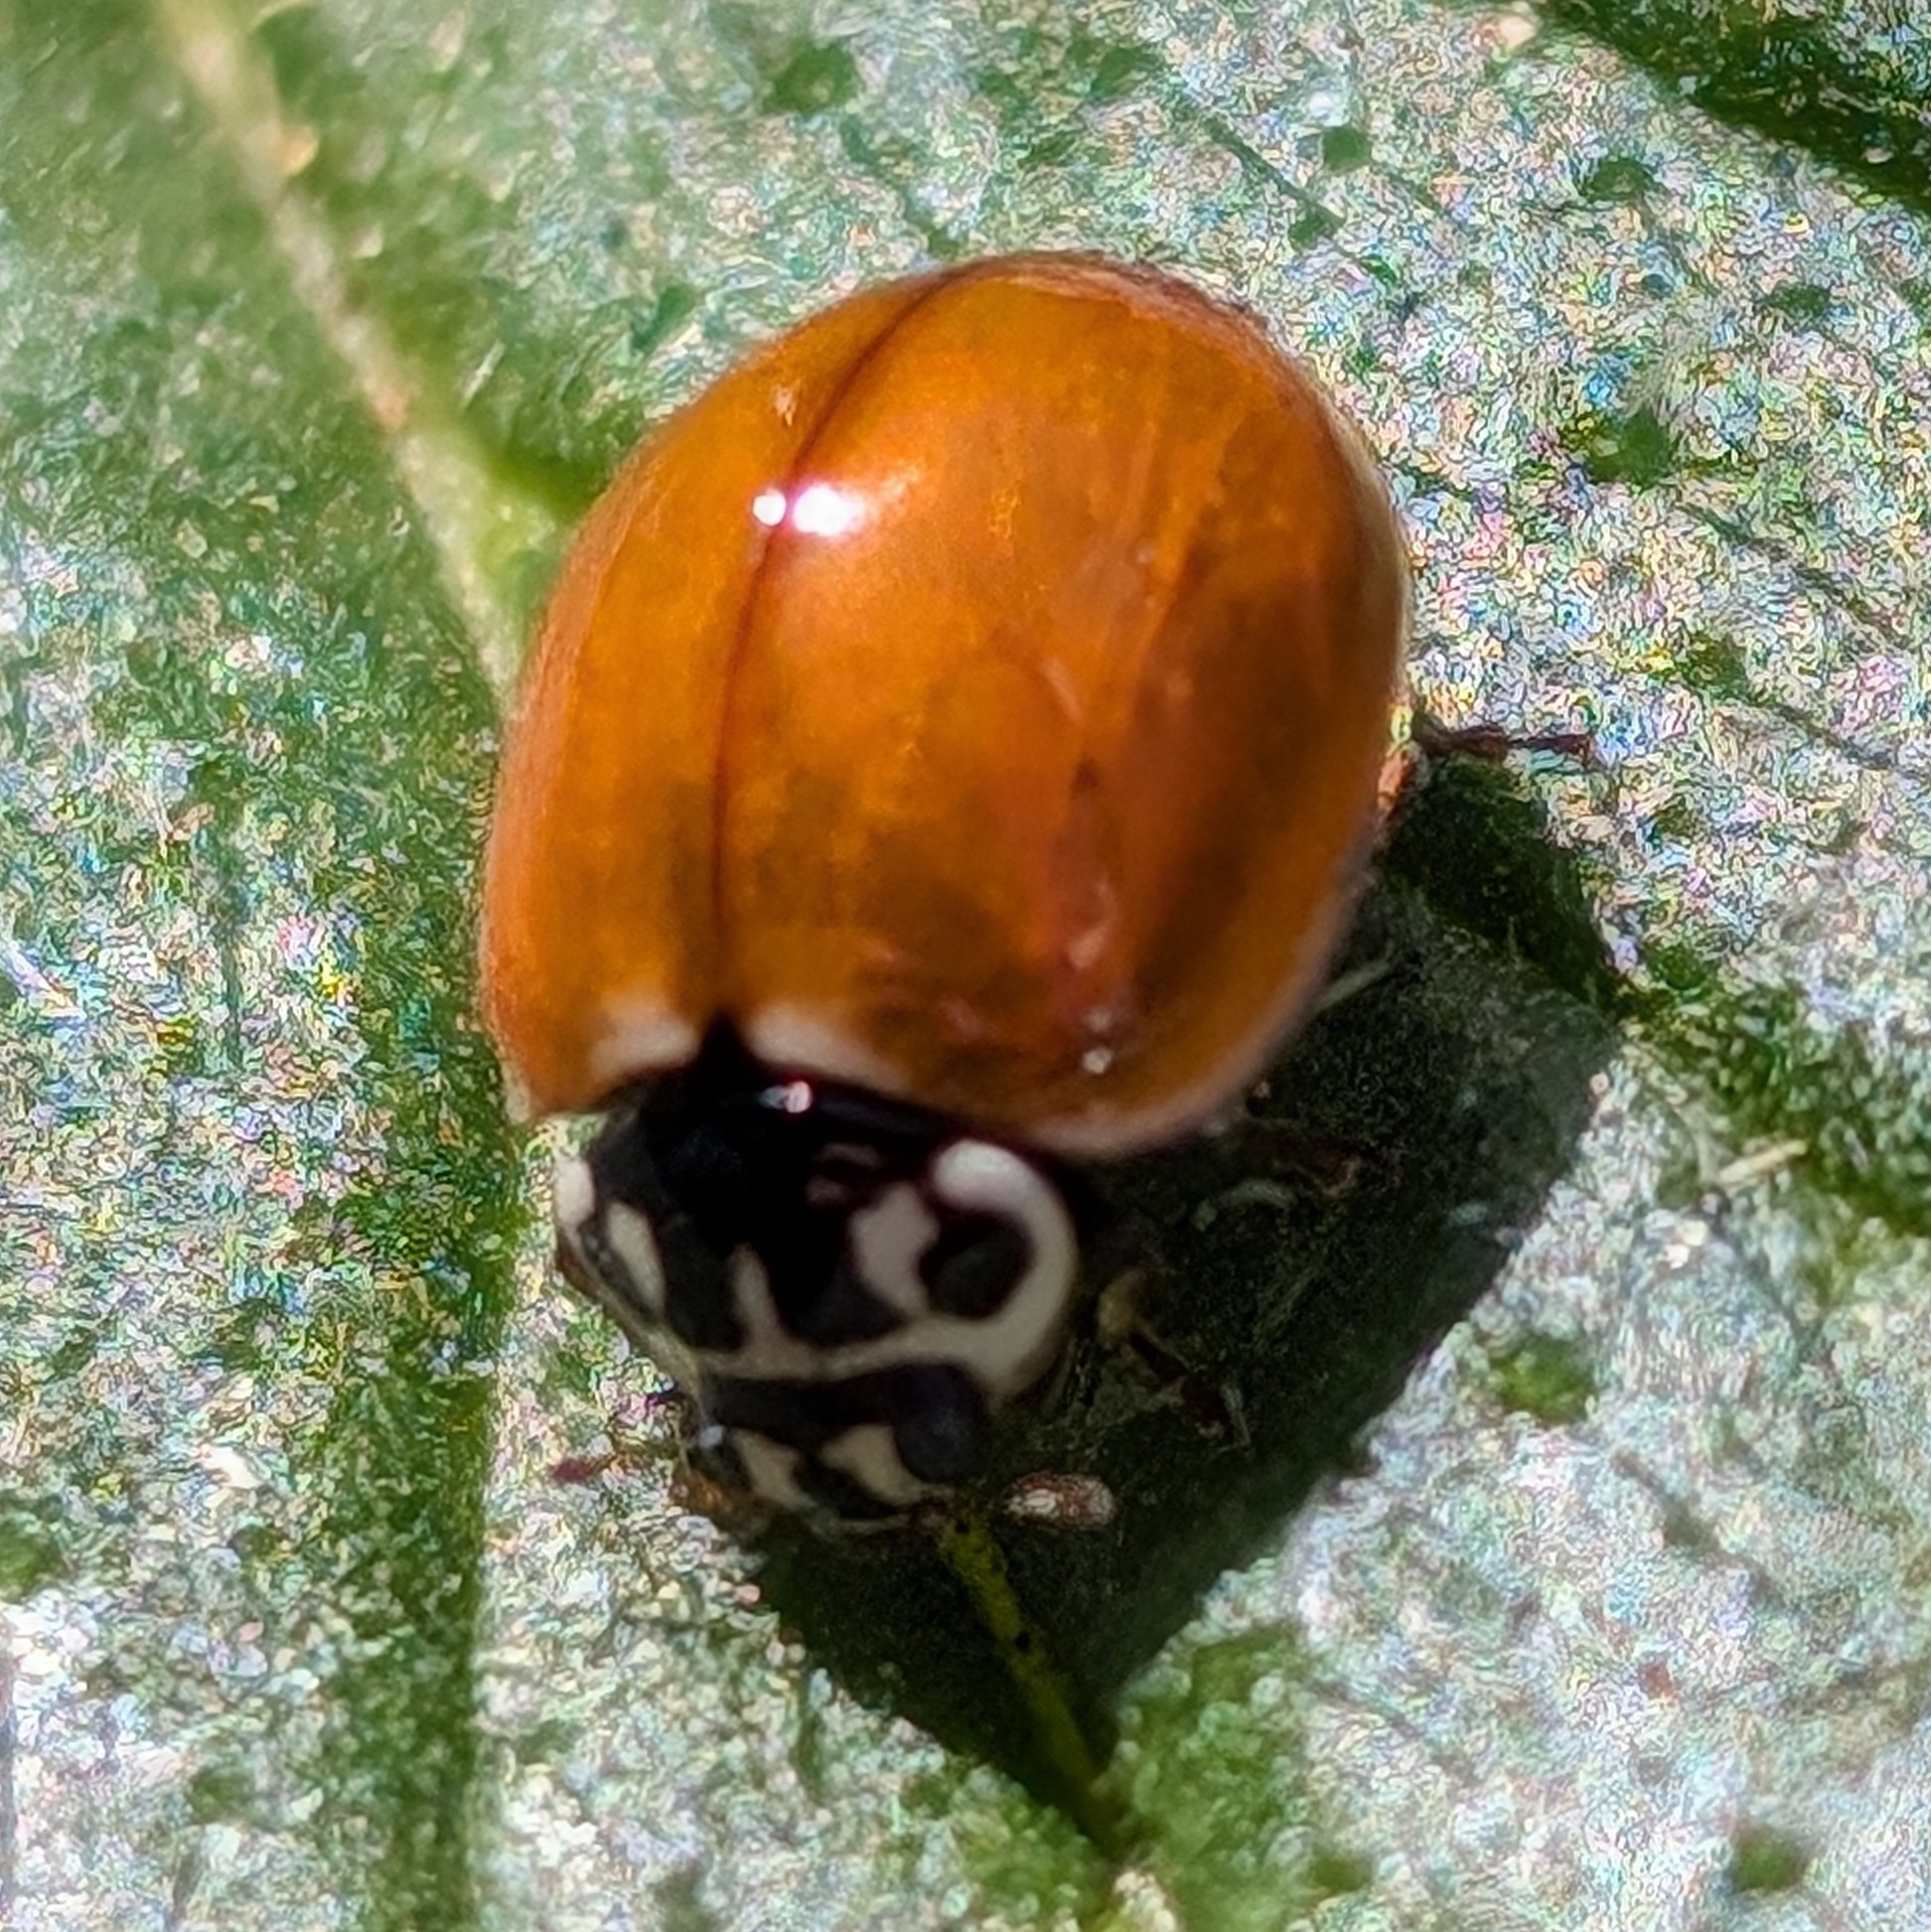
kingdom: Animalia
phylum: Arthropoda
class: Insecta
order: Coleoptera
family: Coccinellidae
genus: Cycloneda
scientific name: Cycloneda polita
